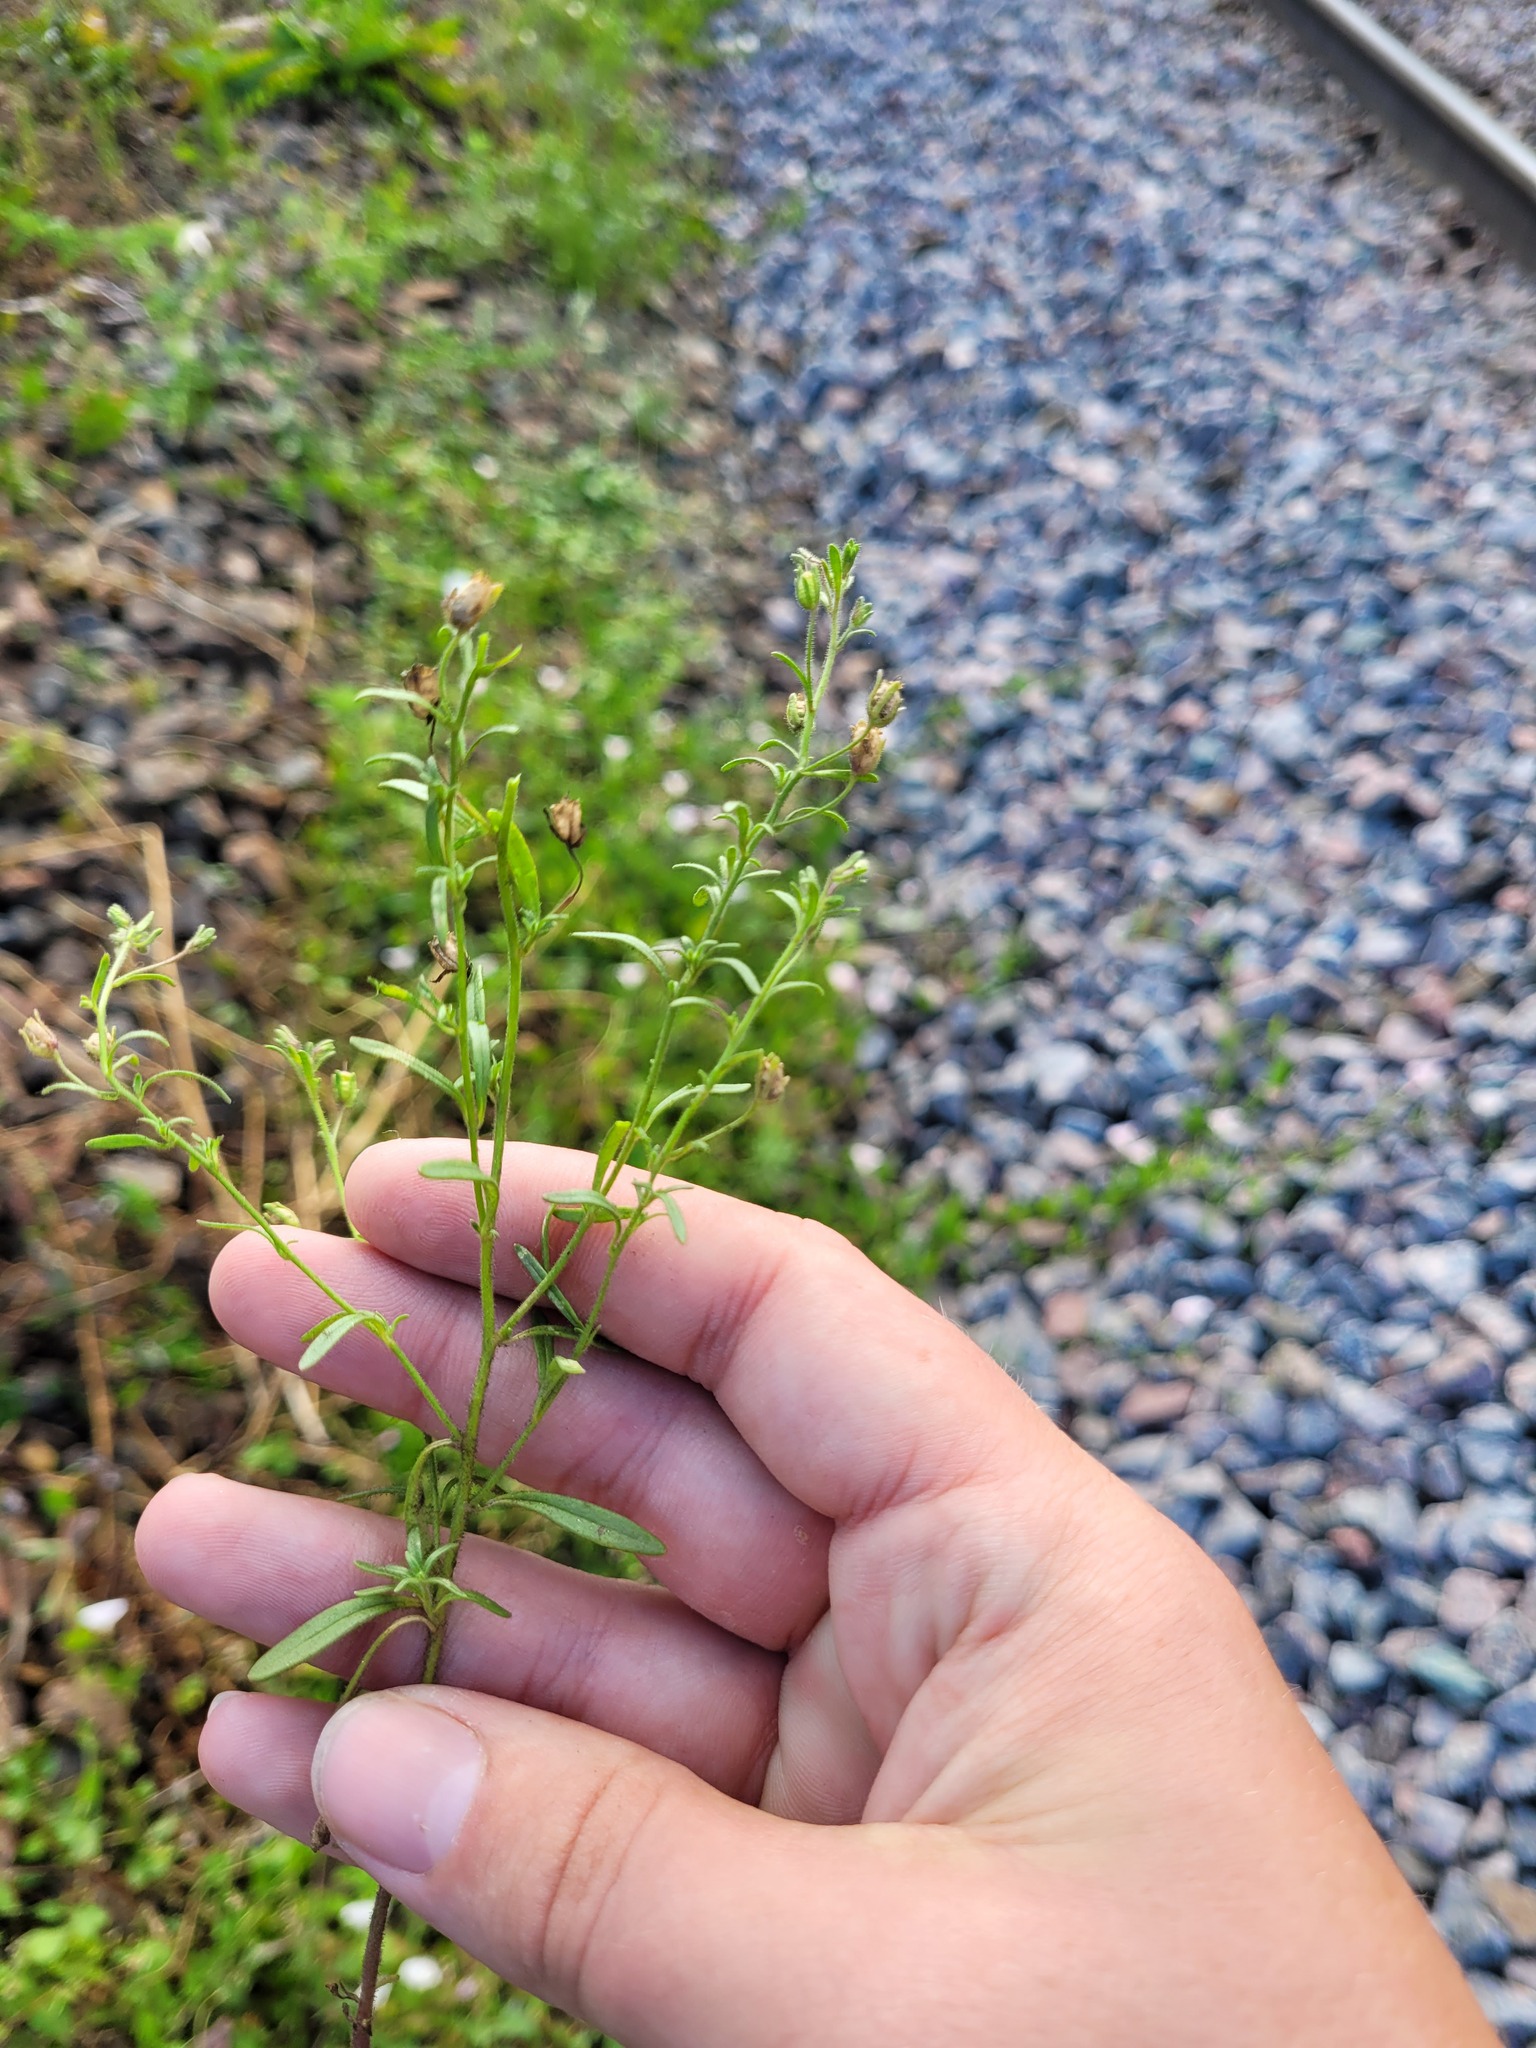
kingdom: Plantae
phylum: Tracheophyta
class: Magnoliopsida
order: Lamiales
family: Plantaginaceae
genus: Chaenorhinum
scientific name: Chaenorhinum minus
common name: Dwarf snapdragon
